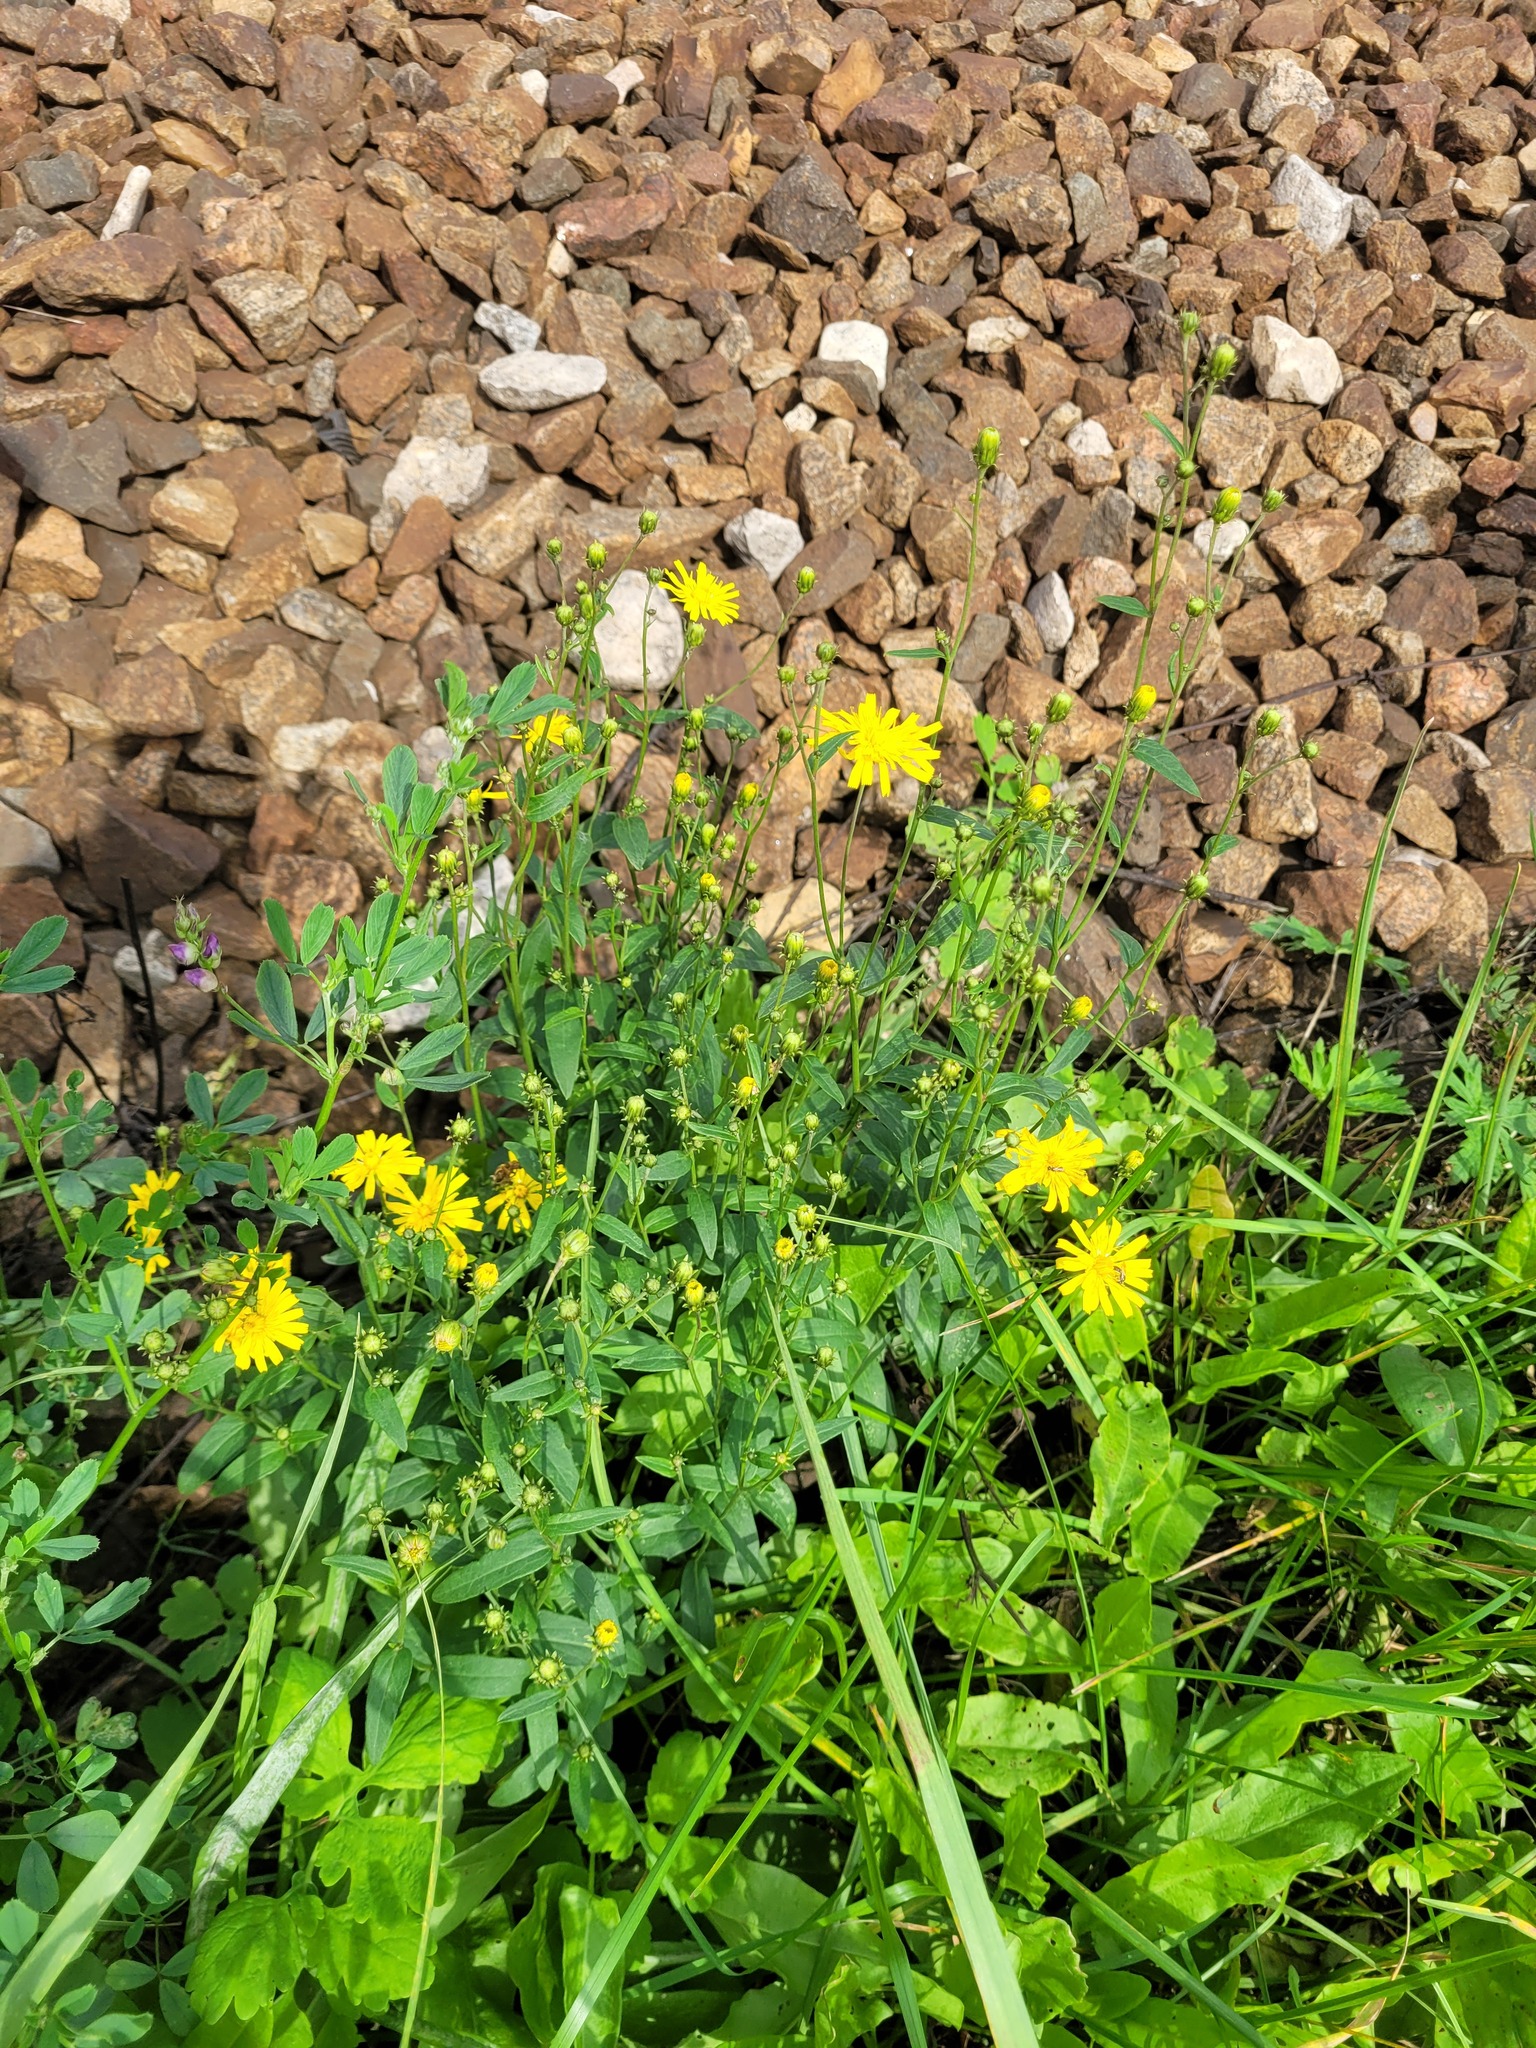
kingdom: Plantae
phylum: Tracheophyta
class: Magnoliopsida
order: Asterales
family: Asteraceae
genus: Hieracium
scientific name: Hieracium umbellatum
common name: Northern hawkweed
